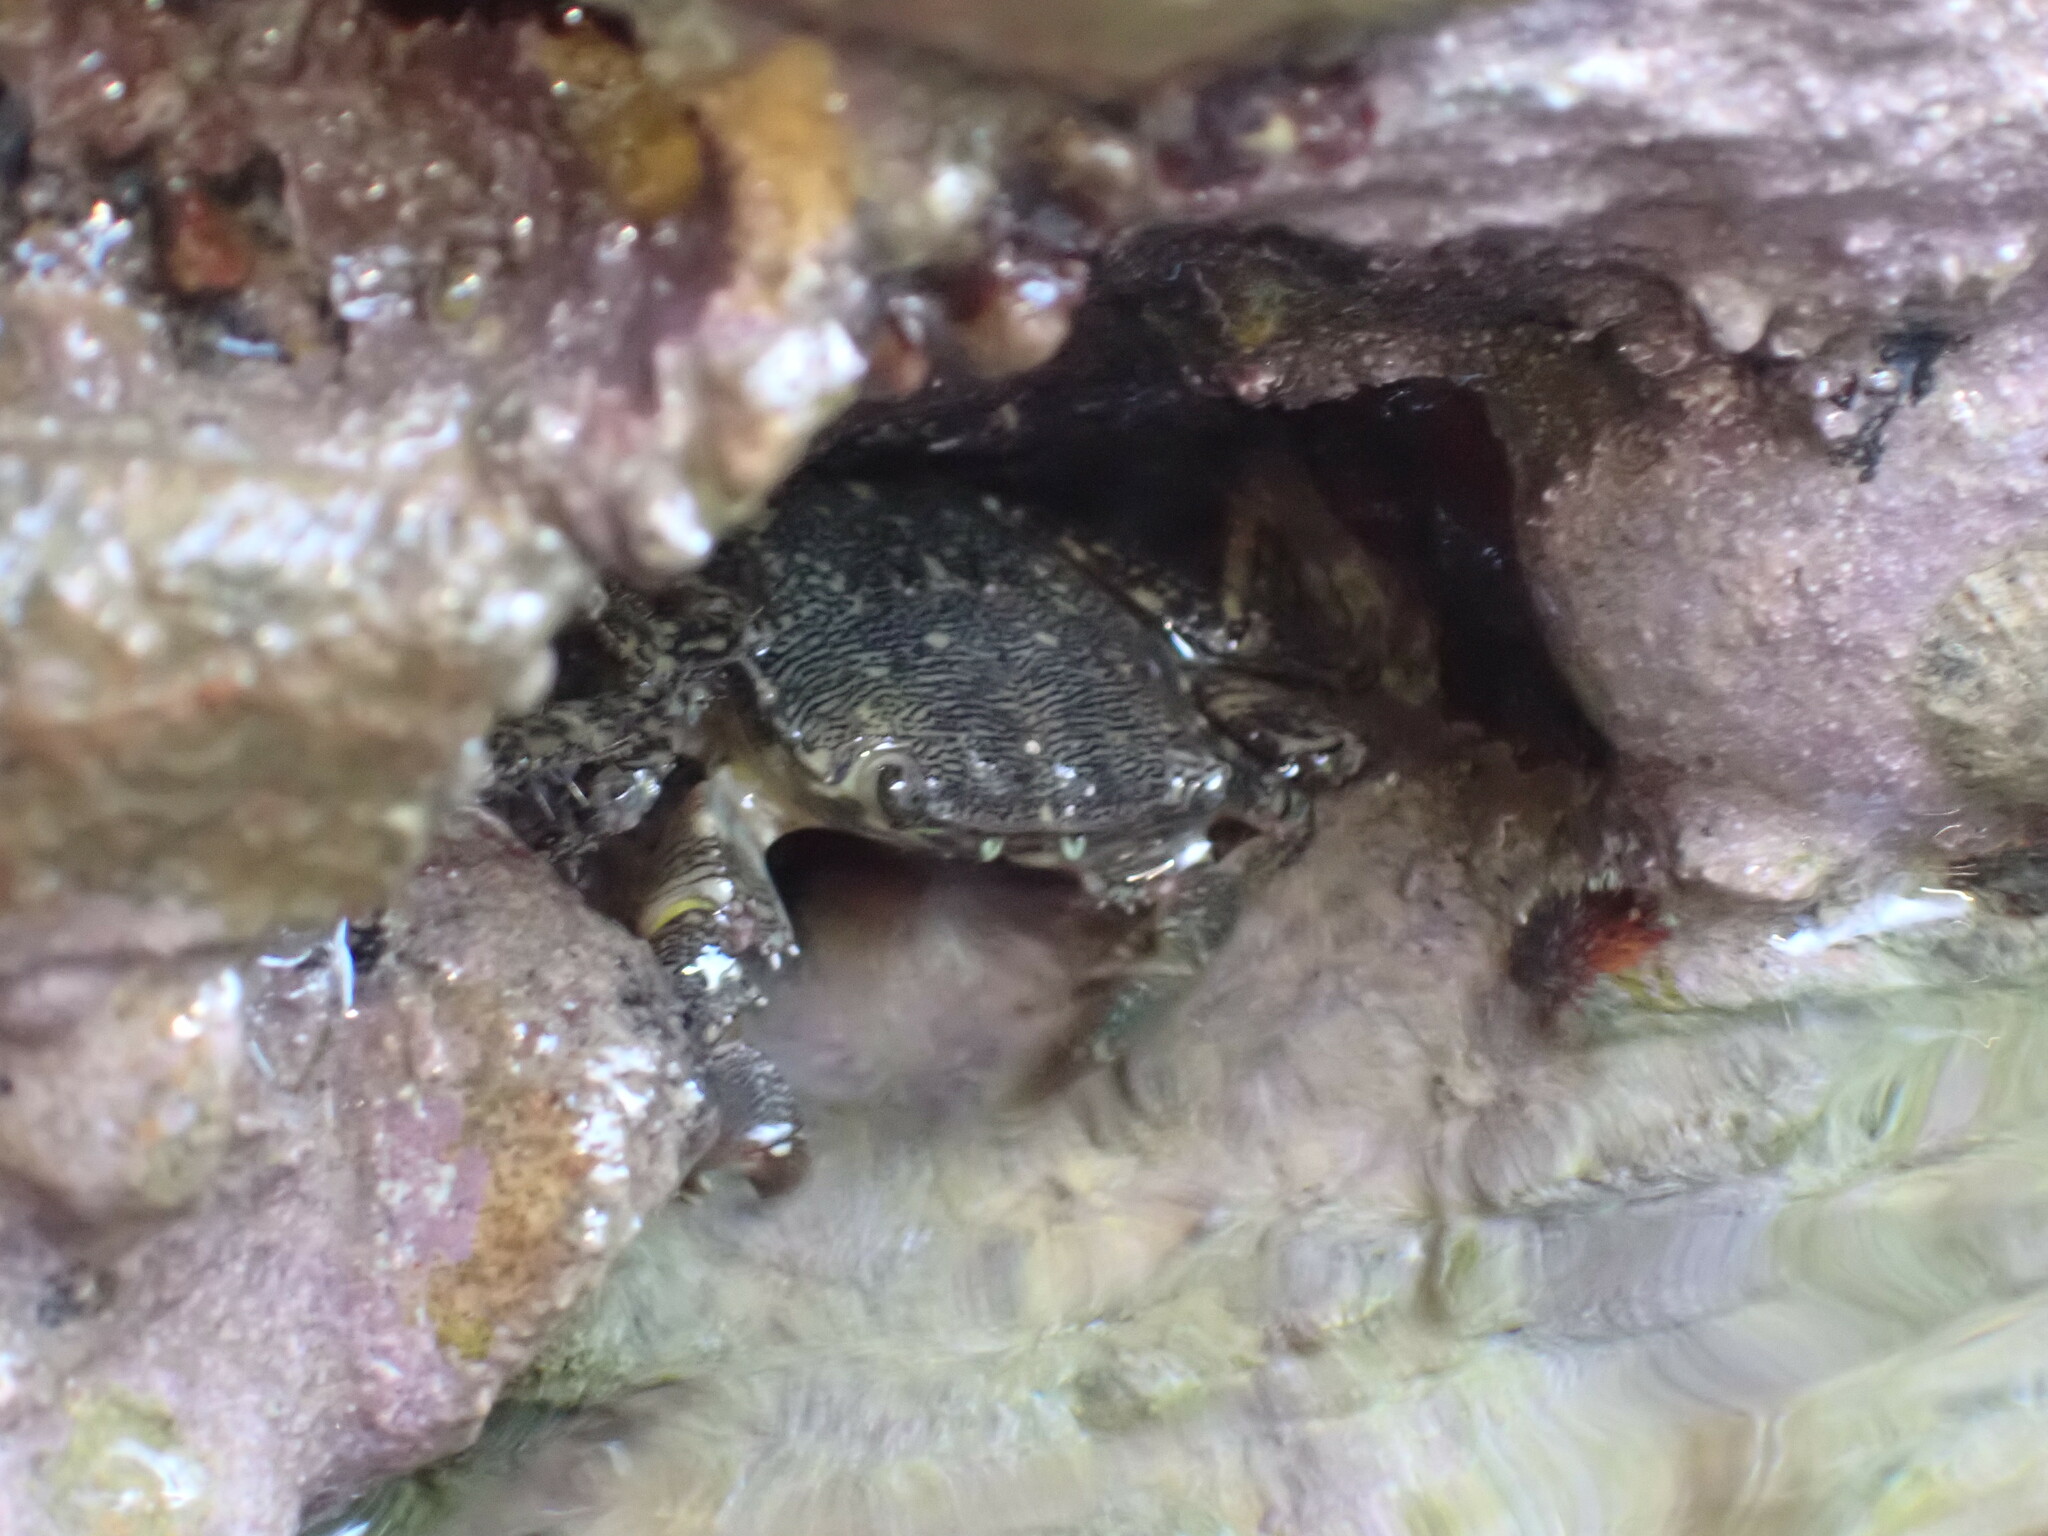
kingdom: Animalia
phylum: Arthropoda
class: Malacostraca
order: Decapoda
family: Grapsidae
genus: Pachygrapsus
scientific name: Pachygrapsus marmoratus
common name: Marbled rock crab
